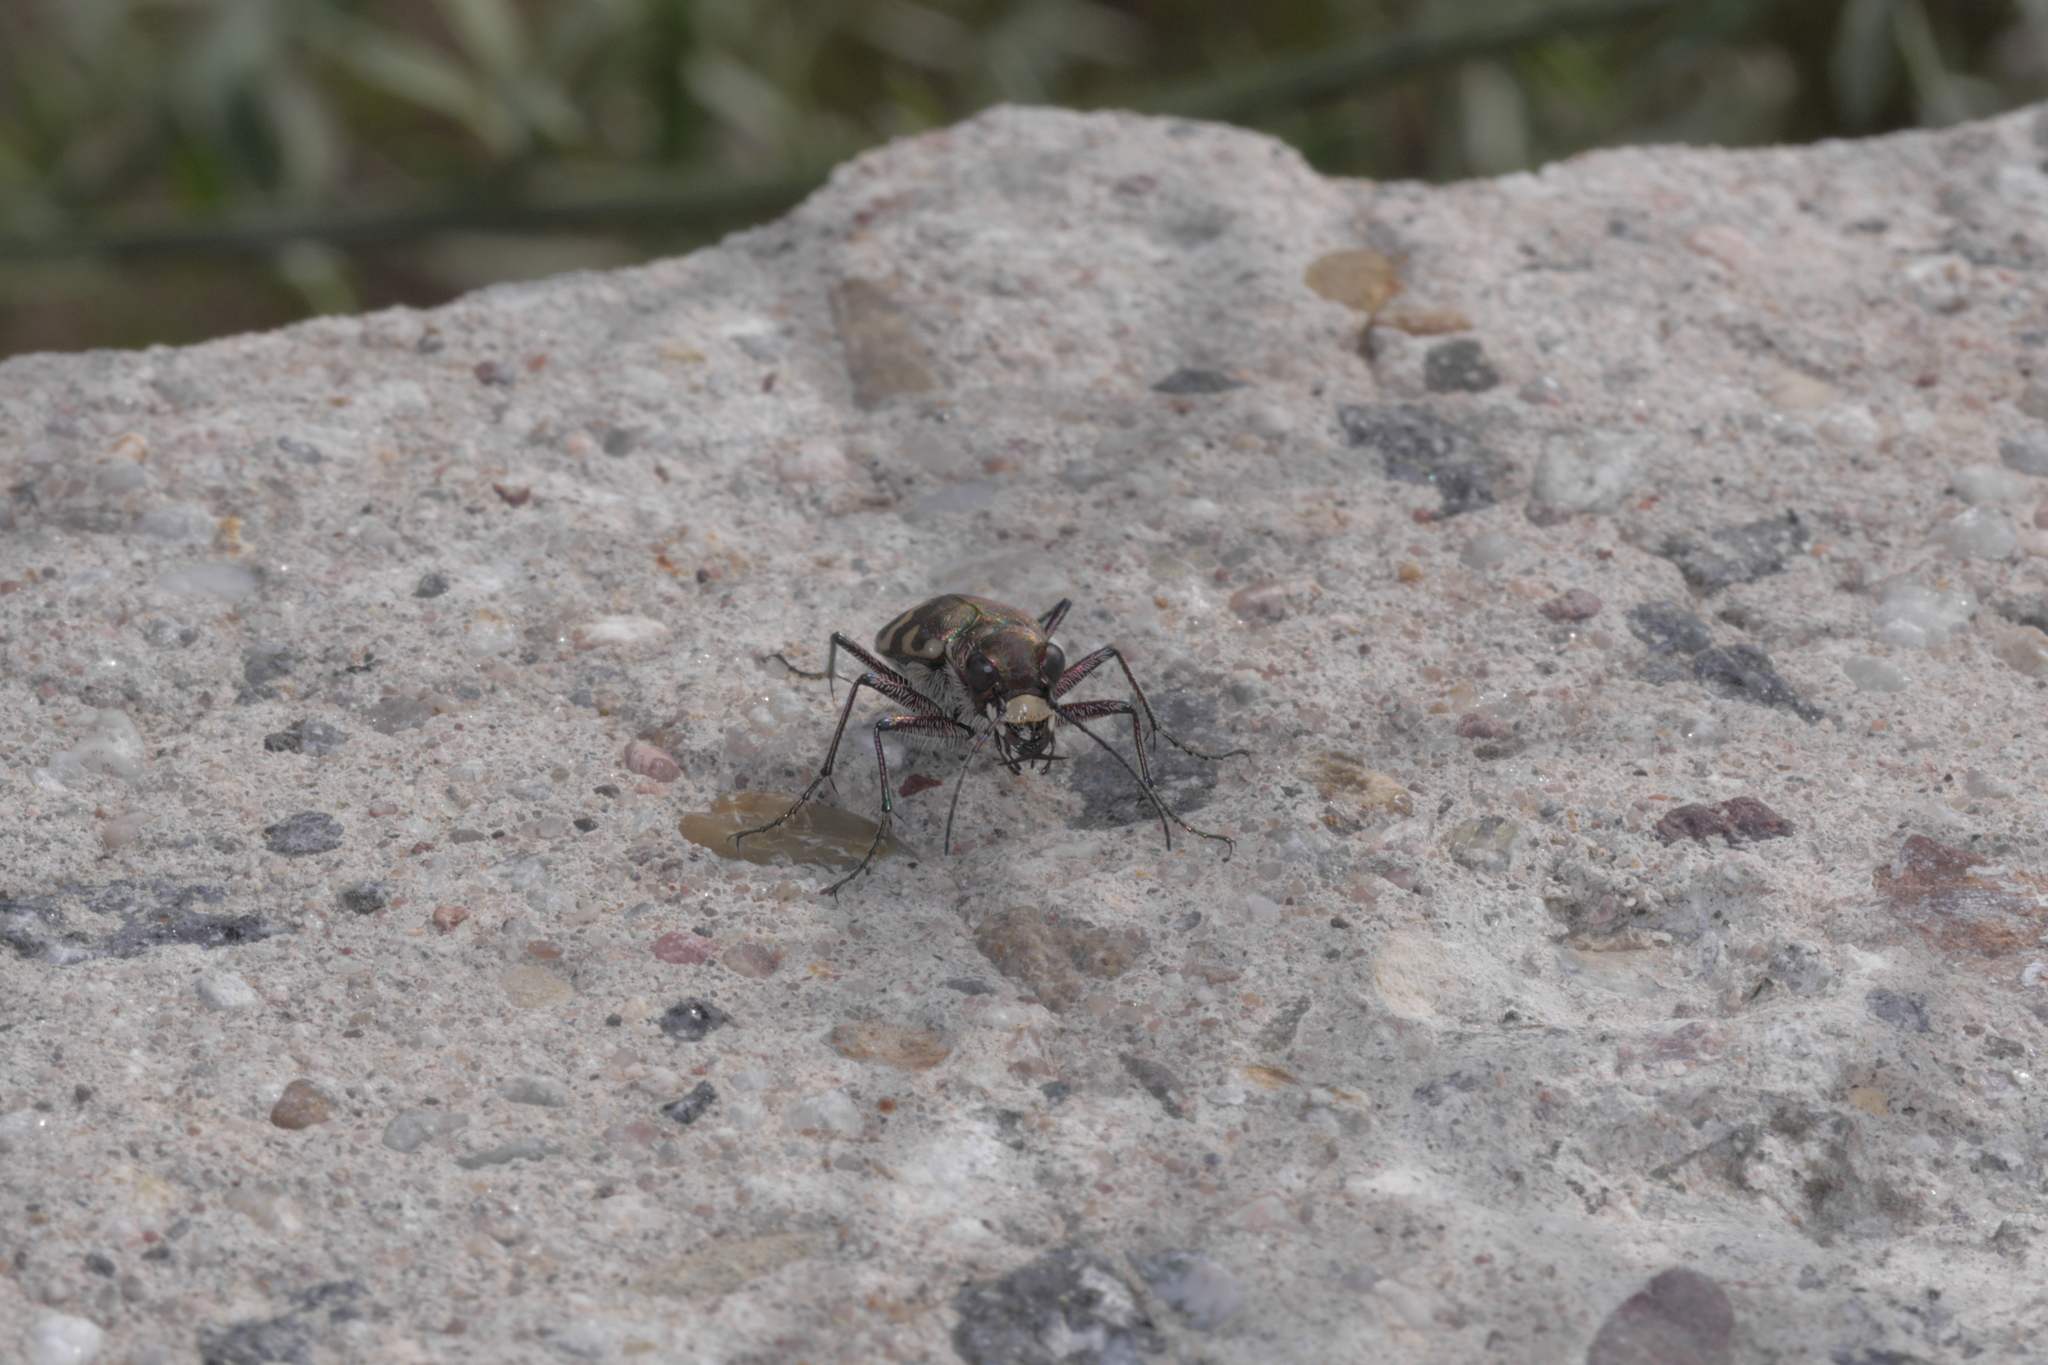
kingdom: Animalia
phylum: Arthropoda
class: Insecta
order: Coleoptera
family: Carabidae
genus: Cicindela
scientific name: Cicindela hybrida
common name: Northern dune tiger beetle
